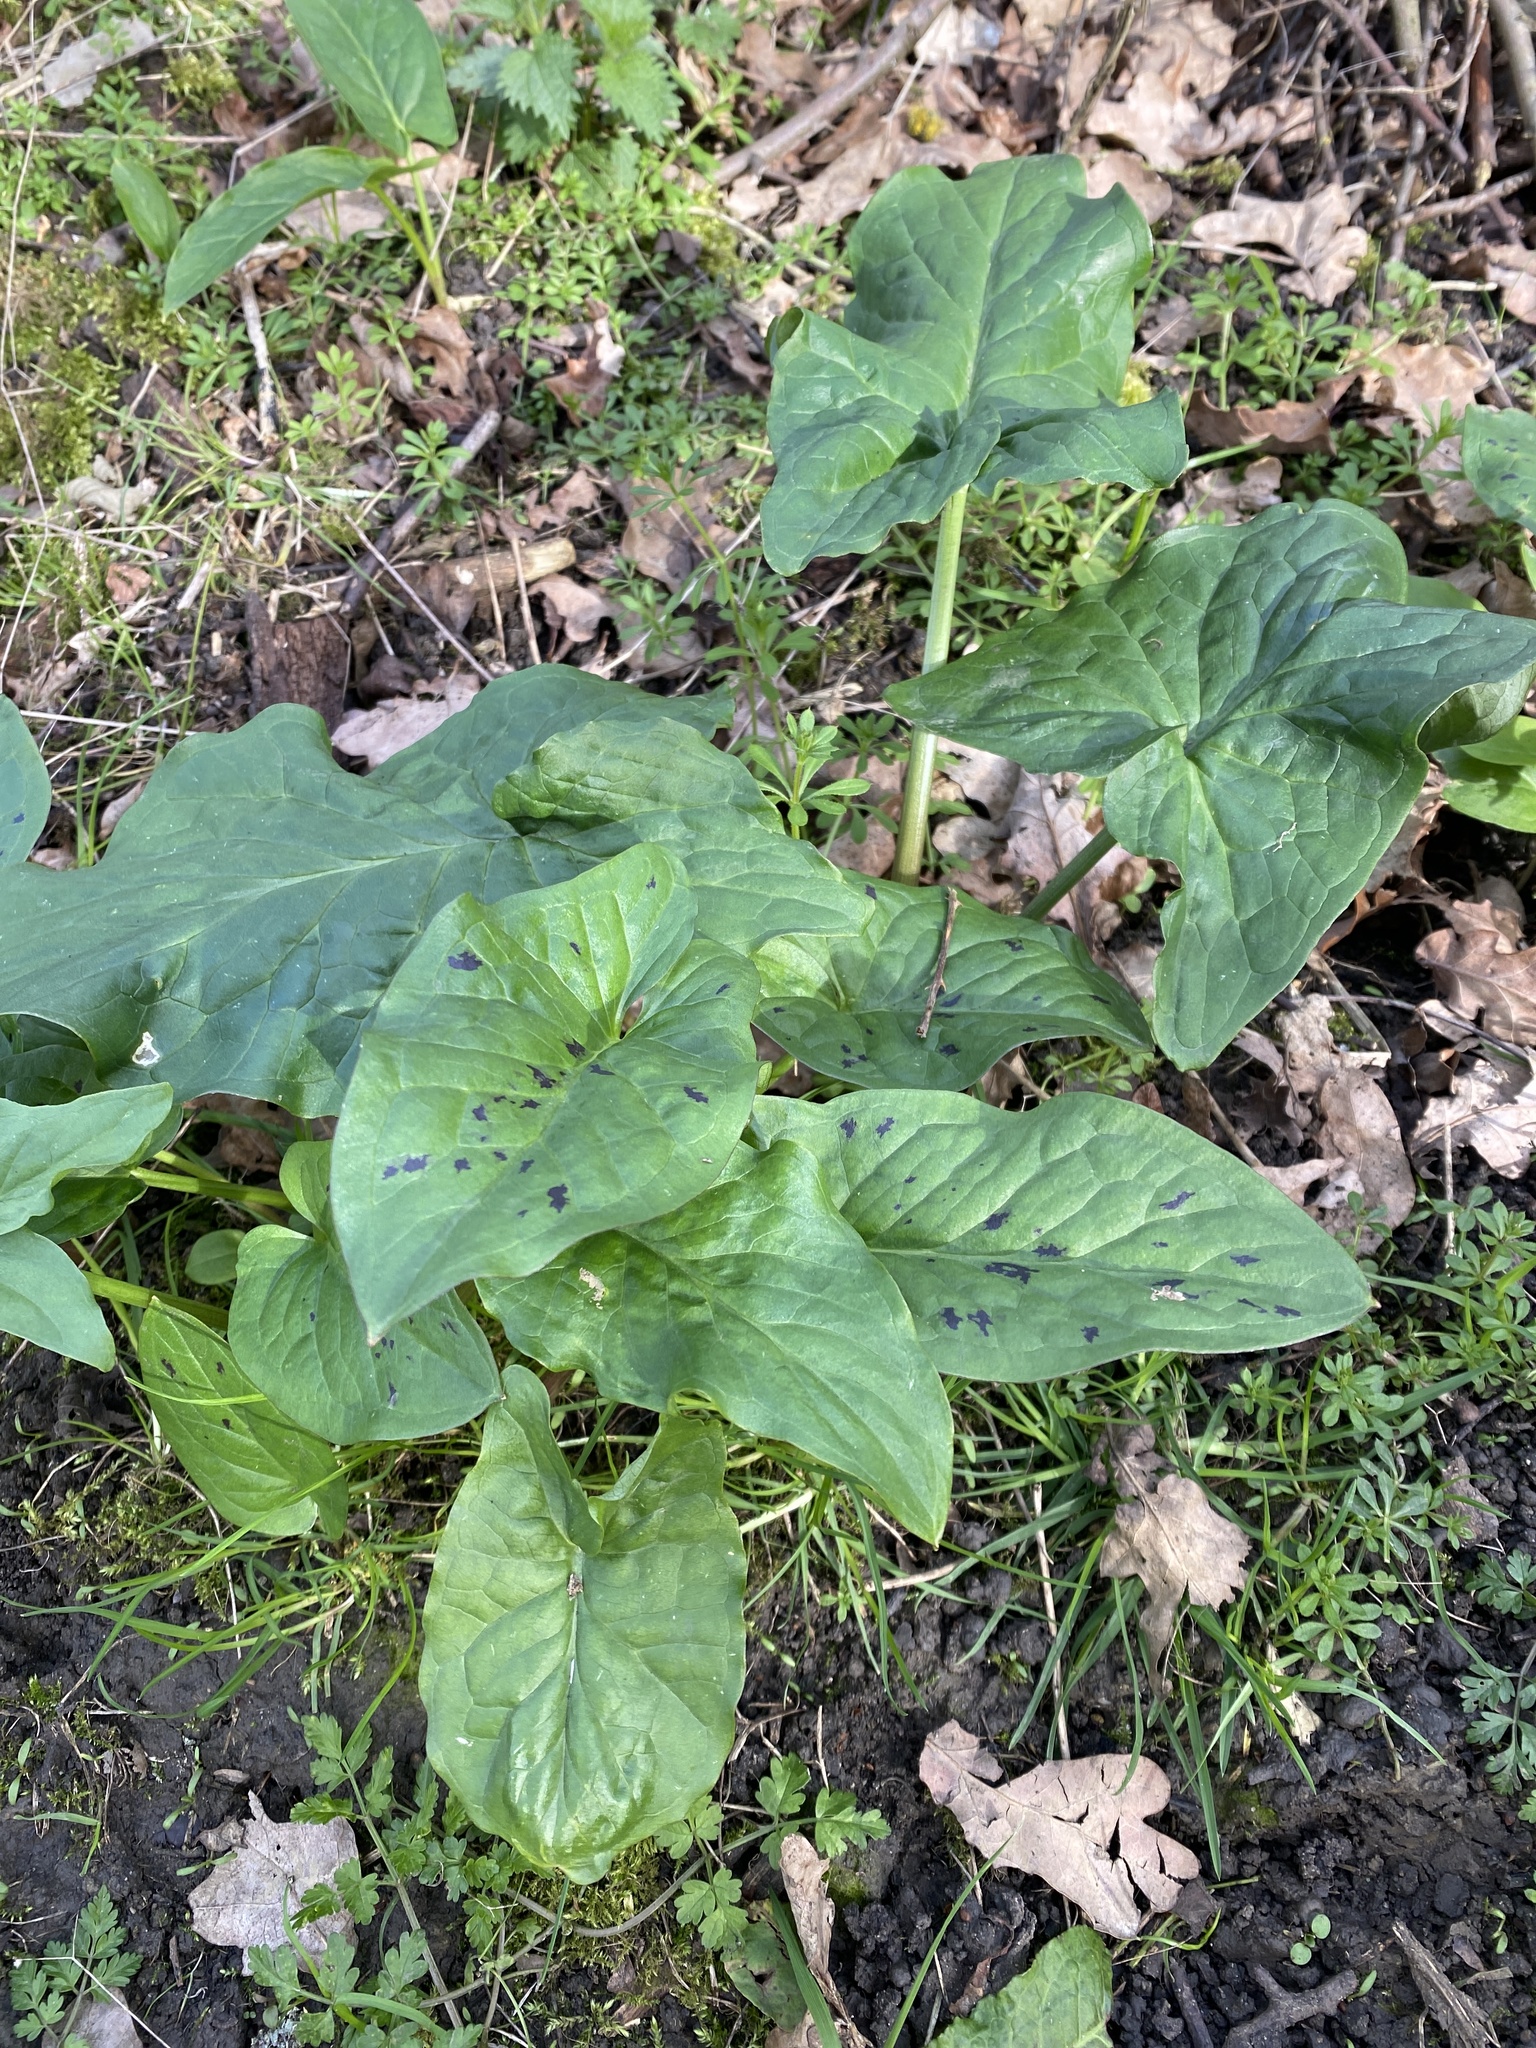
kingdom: Plantae
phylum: Tracheophyta
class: Liliopsida
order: Alismatales
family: Araceae
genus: Arum
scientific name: Arum maculatum
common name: Lords-and-ladies
